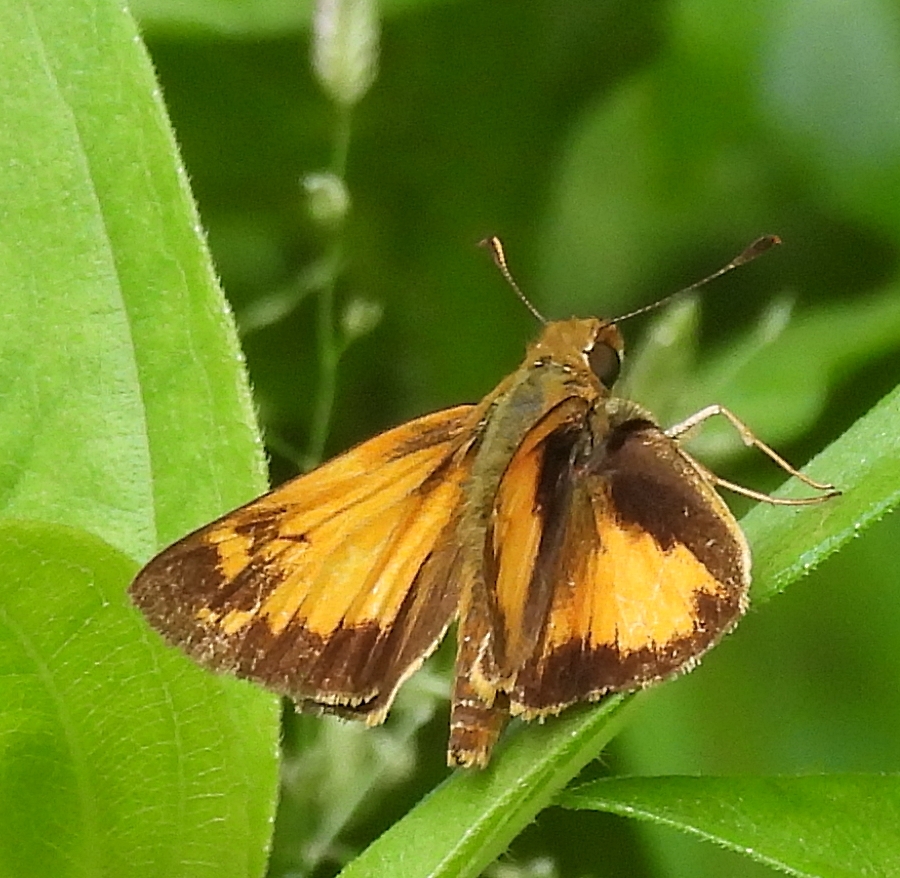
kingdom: Animalia
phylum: Arthropoda
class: Insecta
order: Lepidoptera
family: Hesperiidae
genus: Lon
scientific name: Lon zabulon
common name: Zabulon skipper
